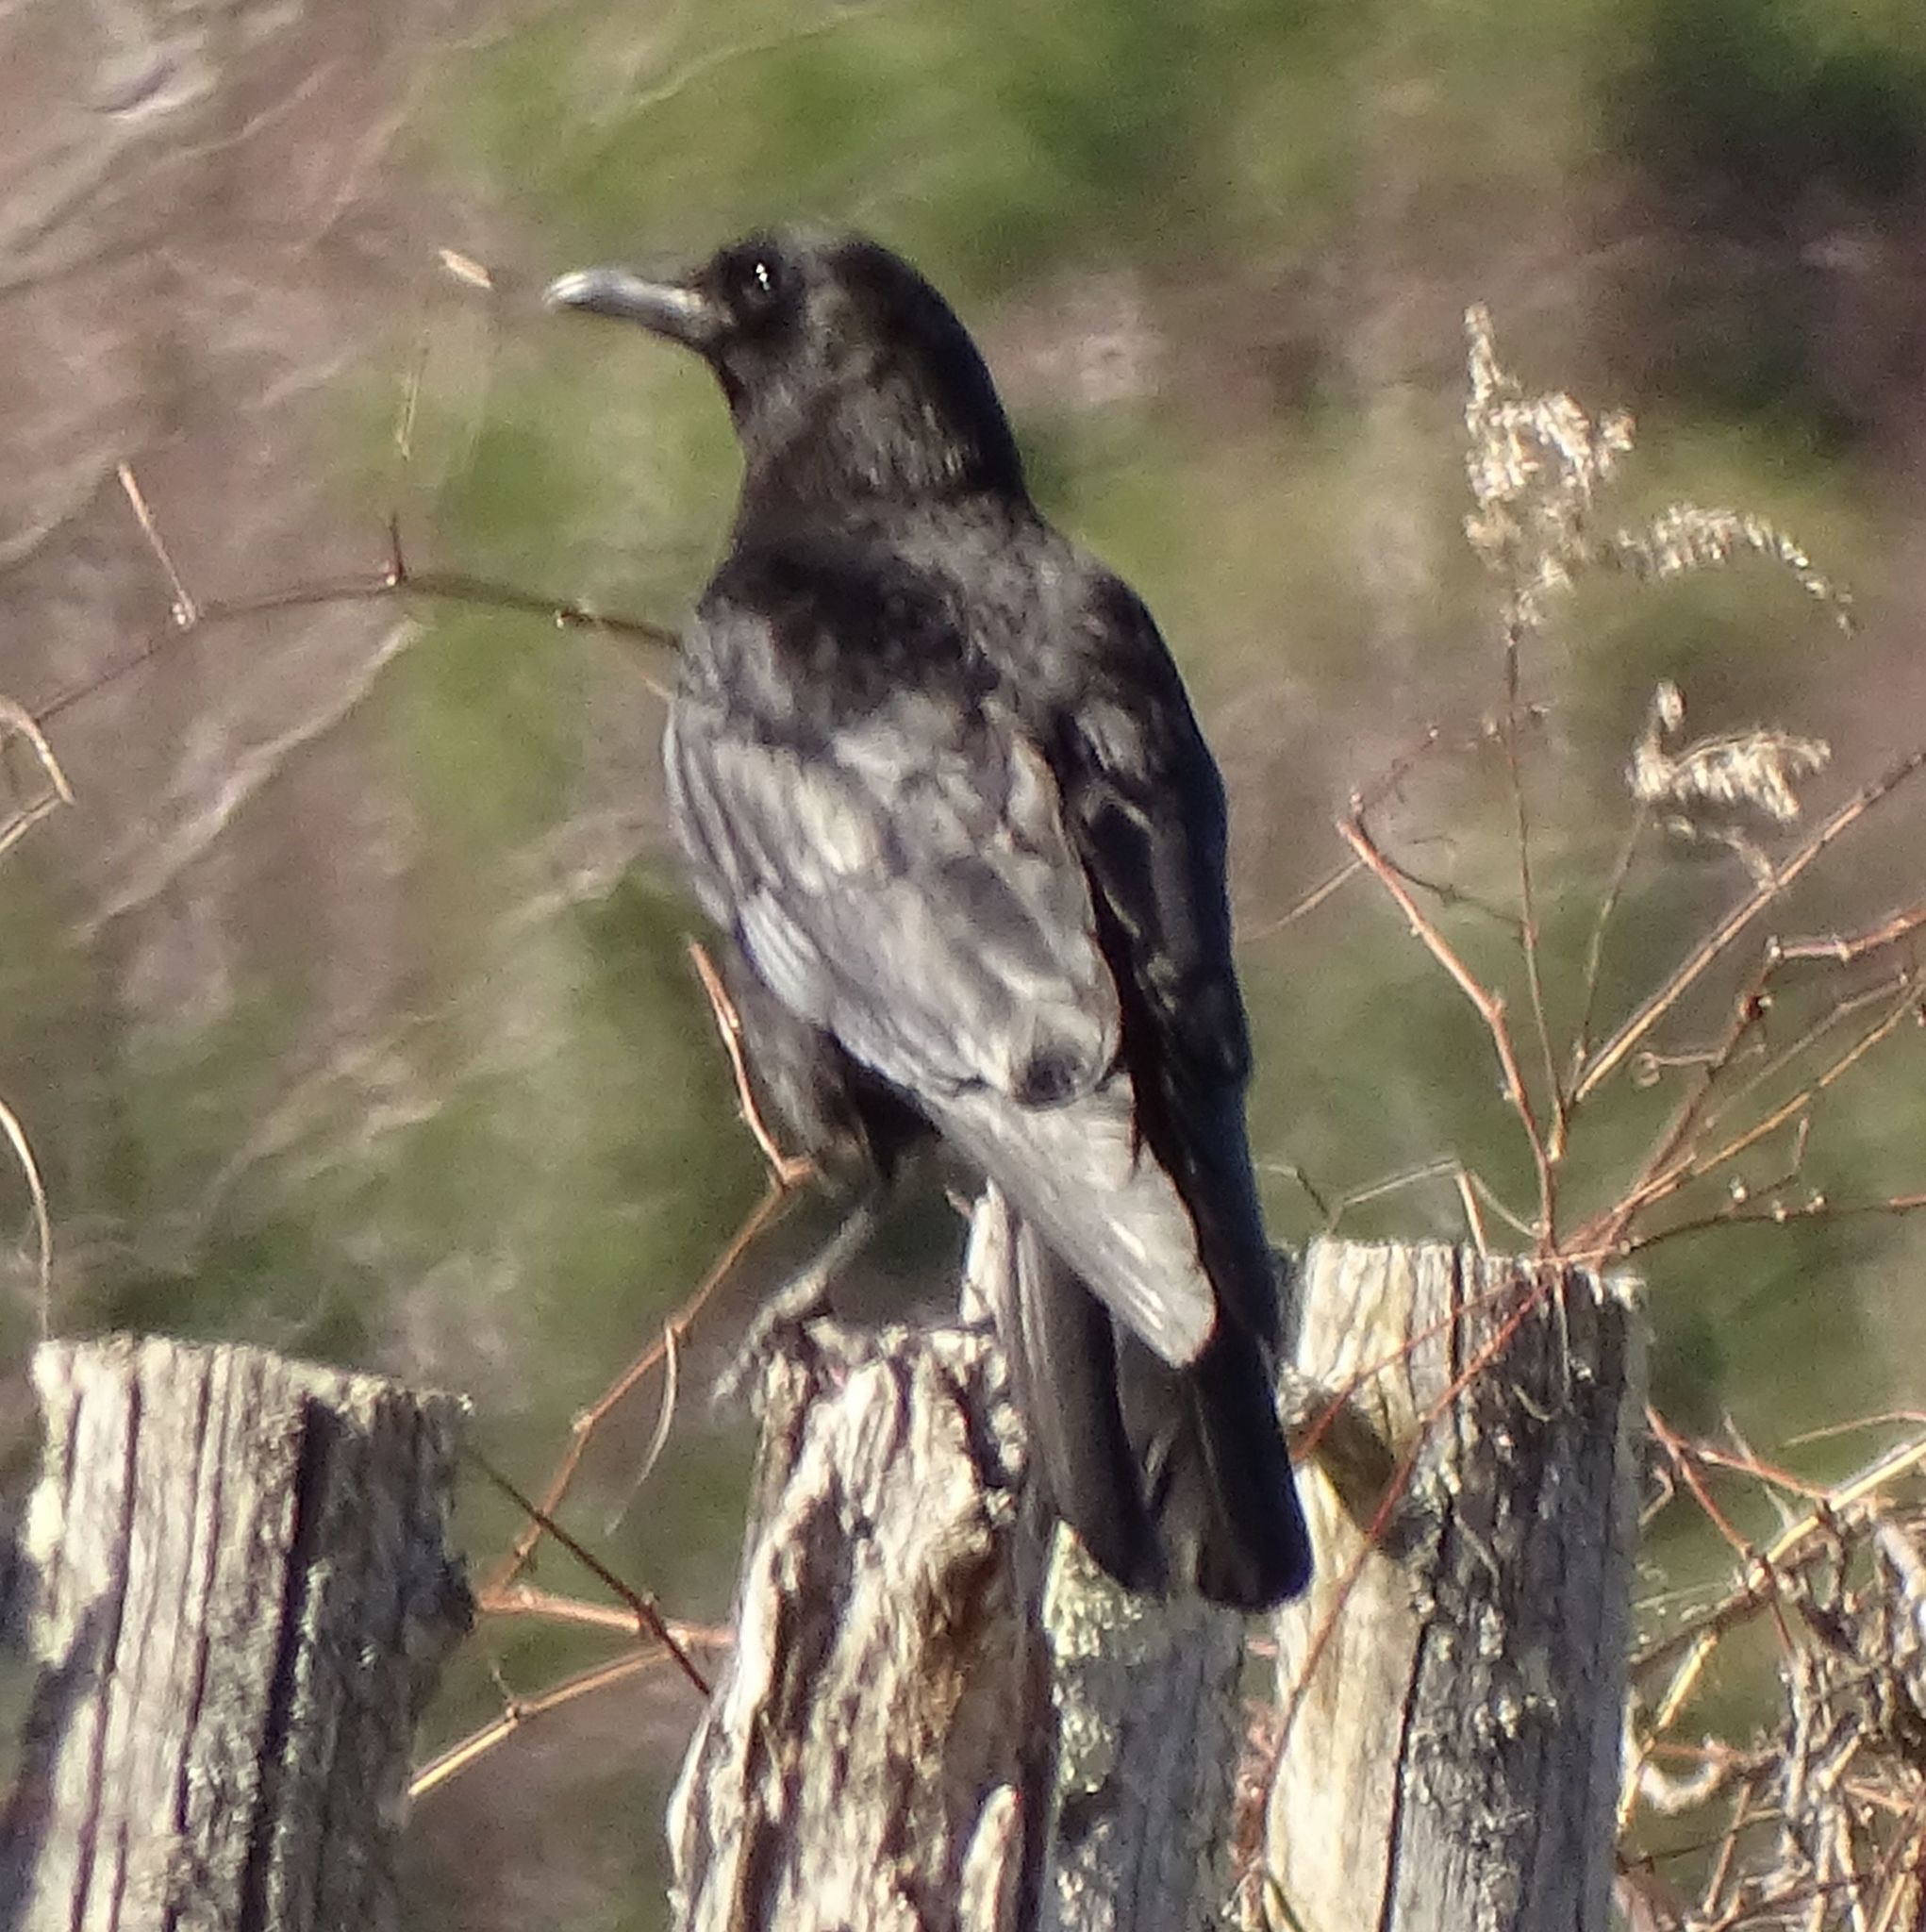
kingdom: Animalia
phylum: Chordata
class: Aves
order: Passeriformes
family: Corvidae
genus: Corvus
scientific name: Corvus brachyrhynchos
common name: American crow
